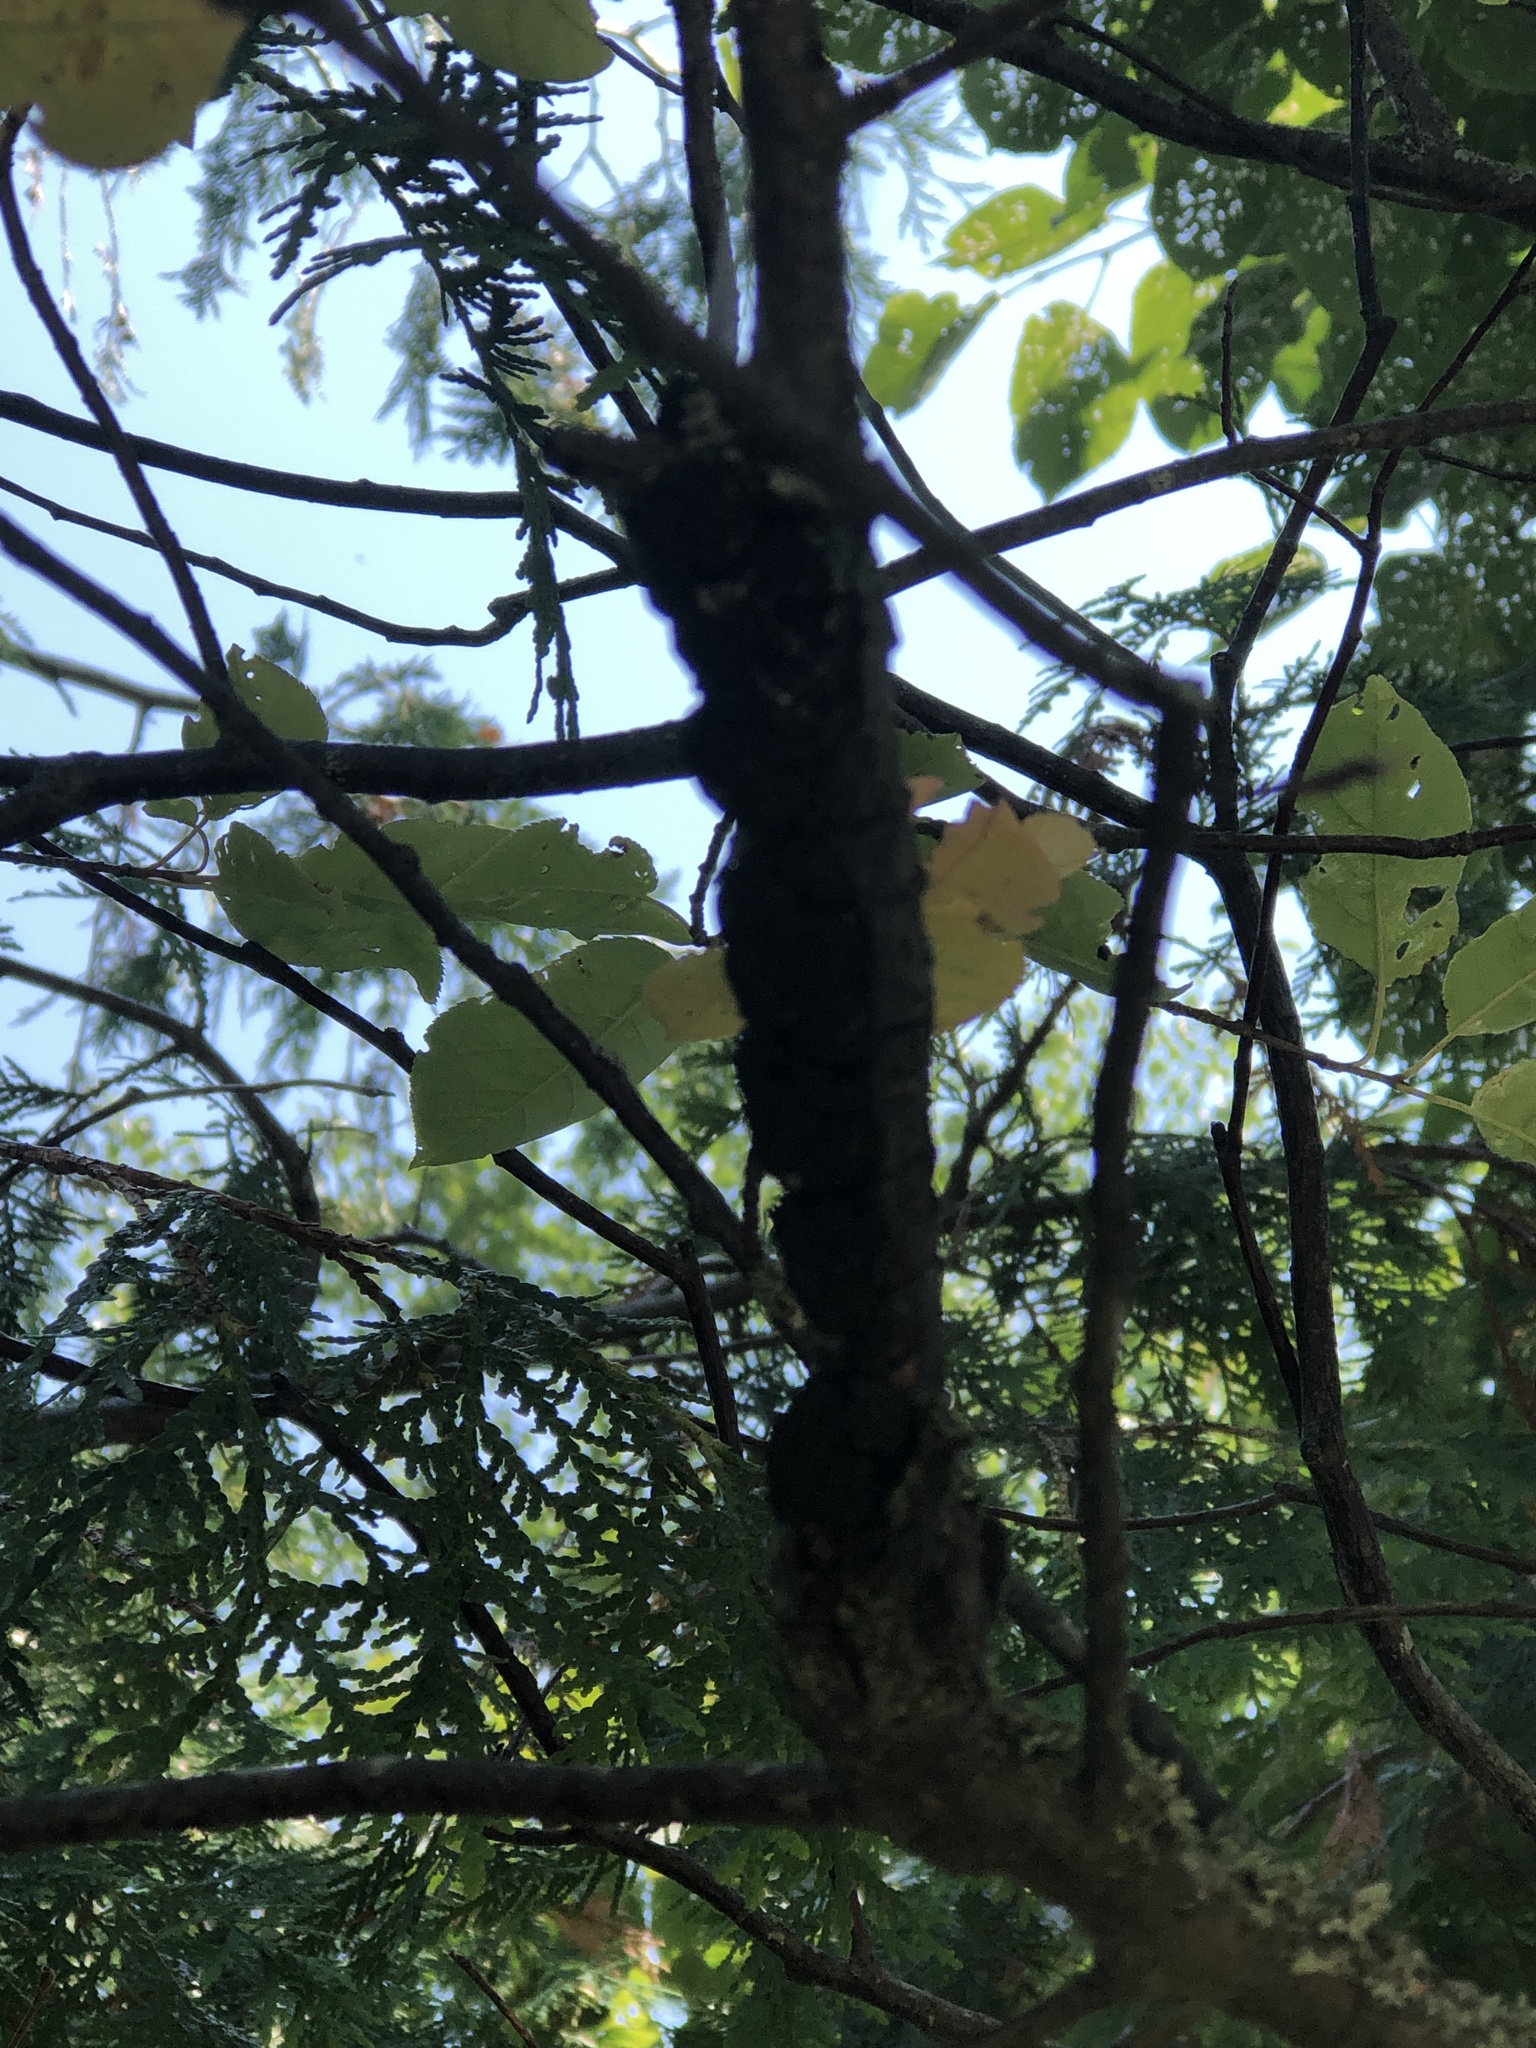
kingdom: Fungi
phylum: Ascomycota
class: Dothideomycetes
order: Venturiales
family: Venturiaceae
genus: Apiosporina
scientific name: Apiosporina morbosa
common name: Black knot
